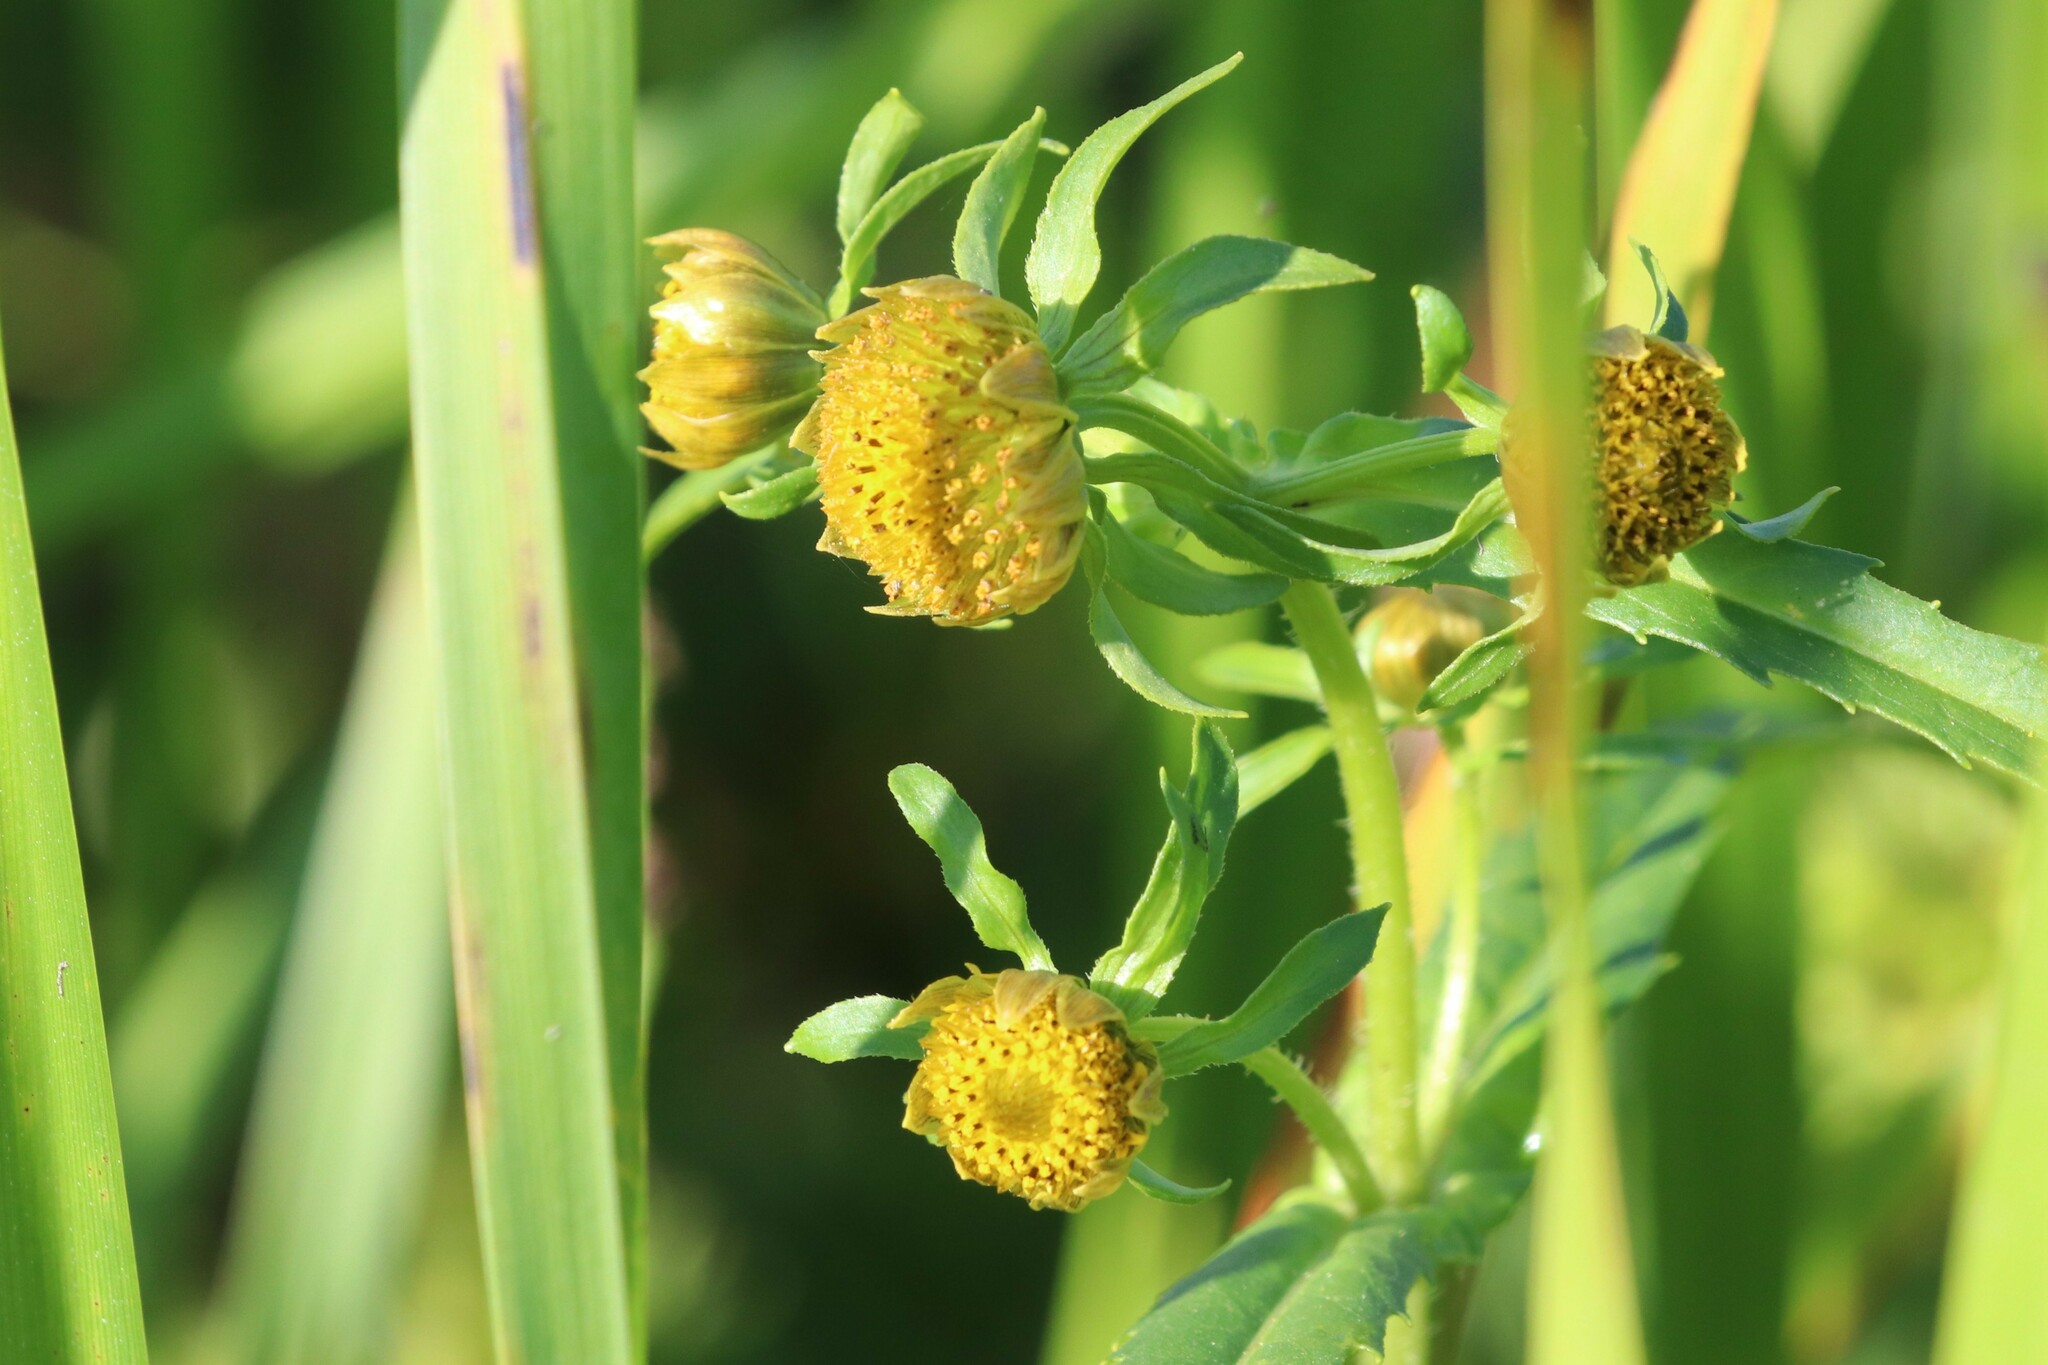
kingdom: Plantae
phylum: Tracheophyta
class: Magnoliopsida
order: Asterales
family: Asteraceae
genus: Bidens
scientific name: Bidens cernua
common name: Nodding bur-marigold
